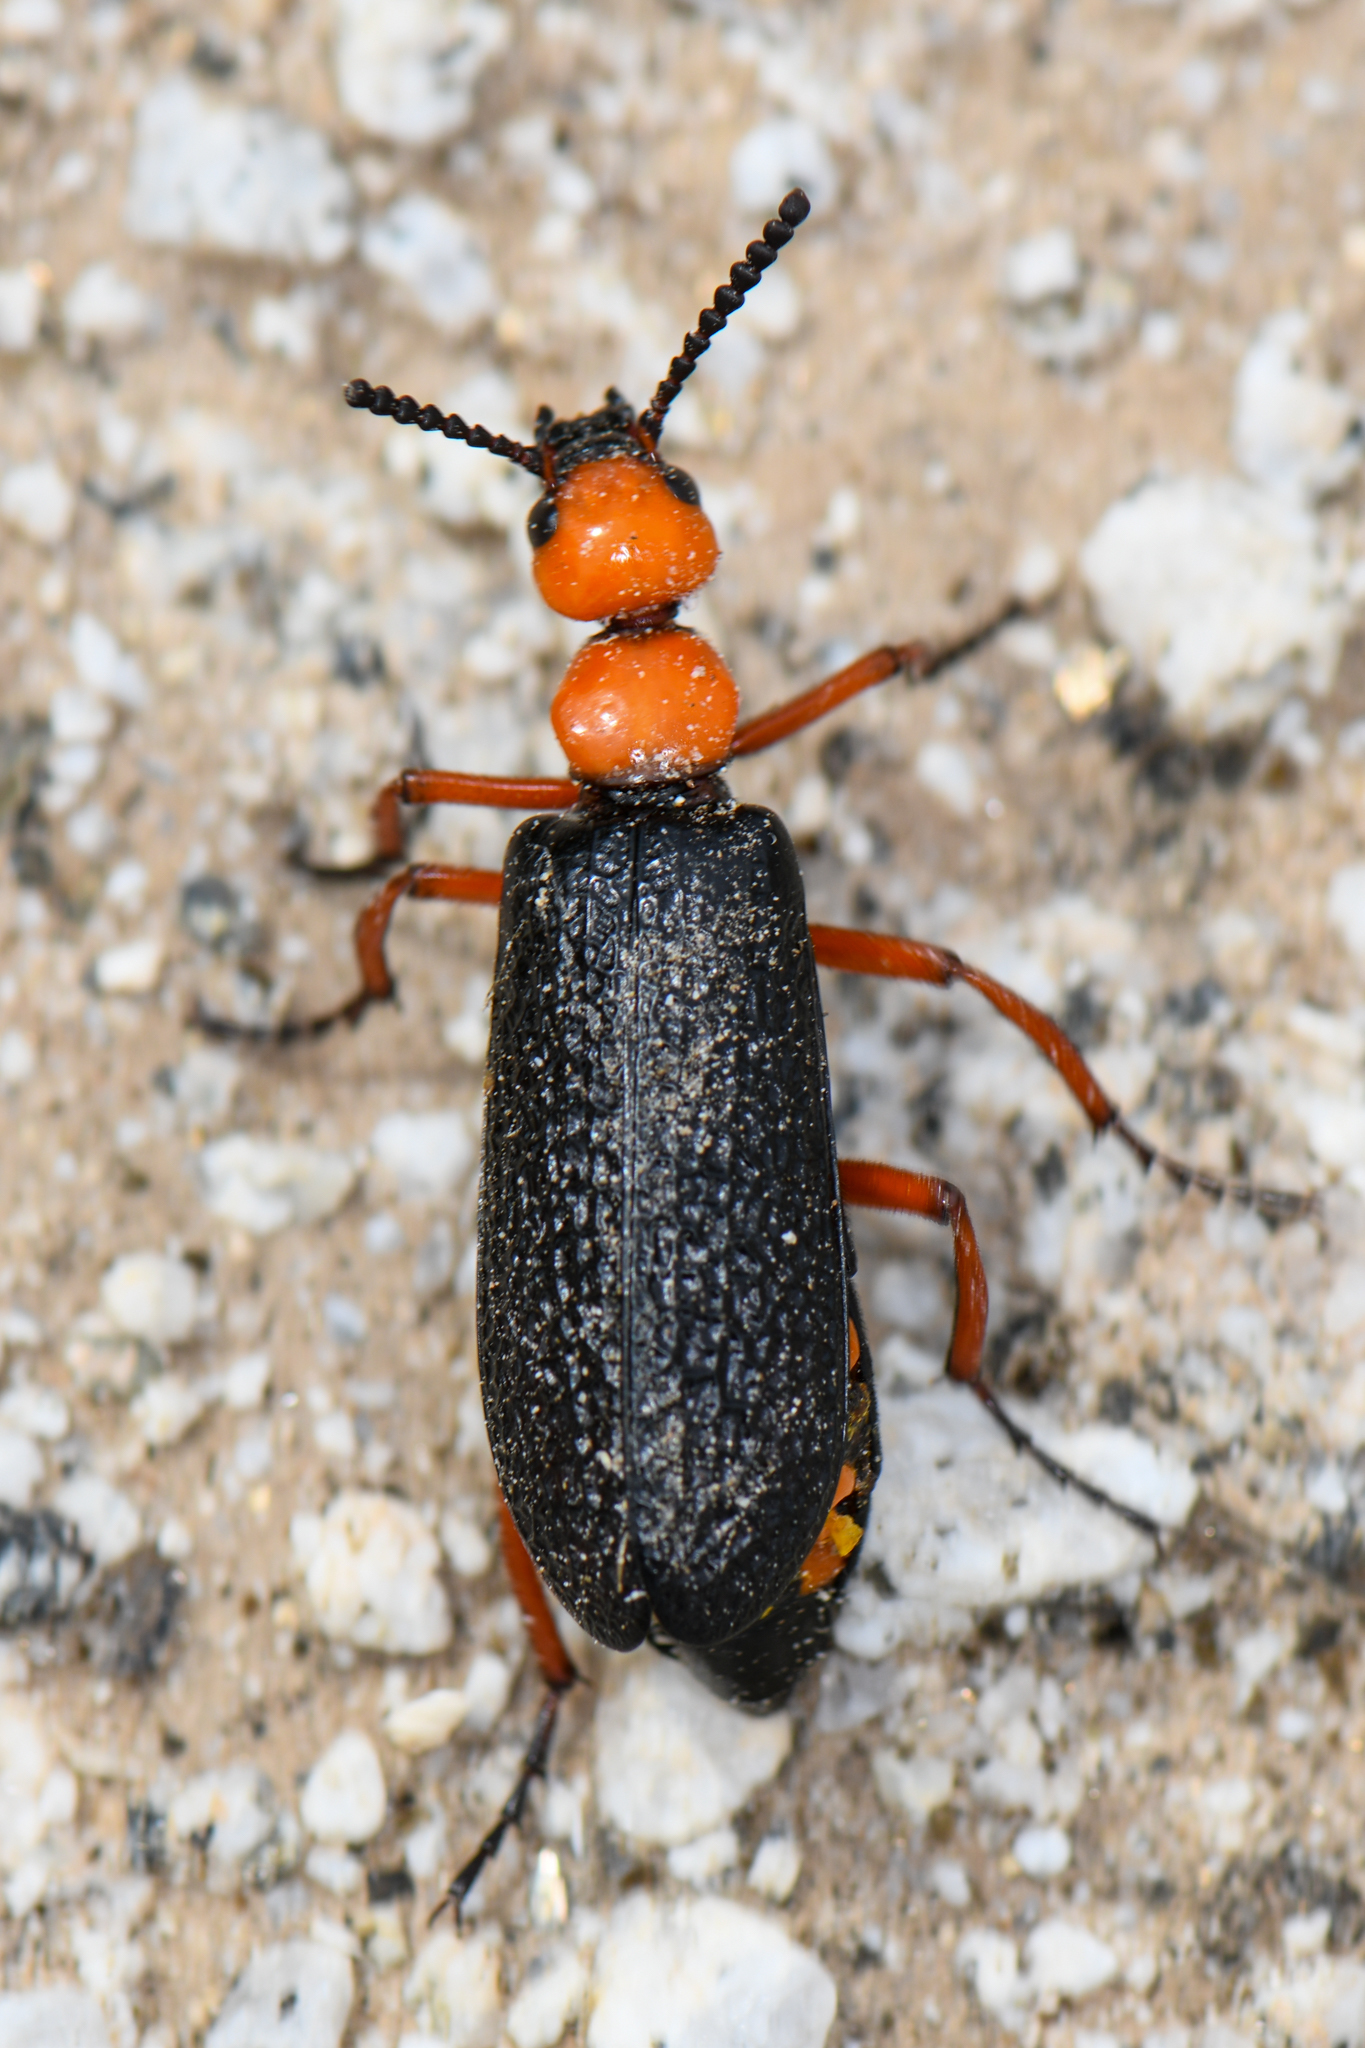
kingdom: Animalia
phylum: Arthropoda
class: Insecta
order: Coleoptera
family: Meloidae
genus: Lytta
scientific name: Lytta magister
